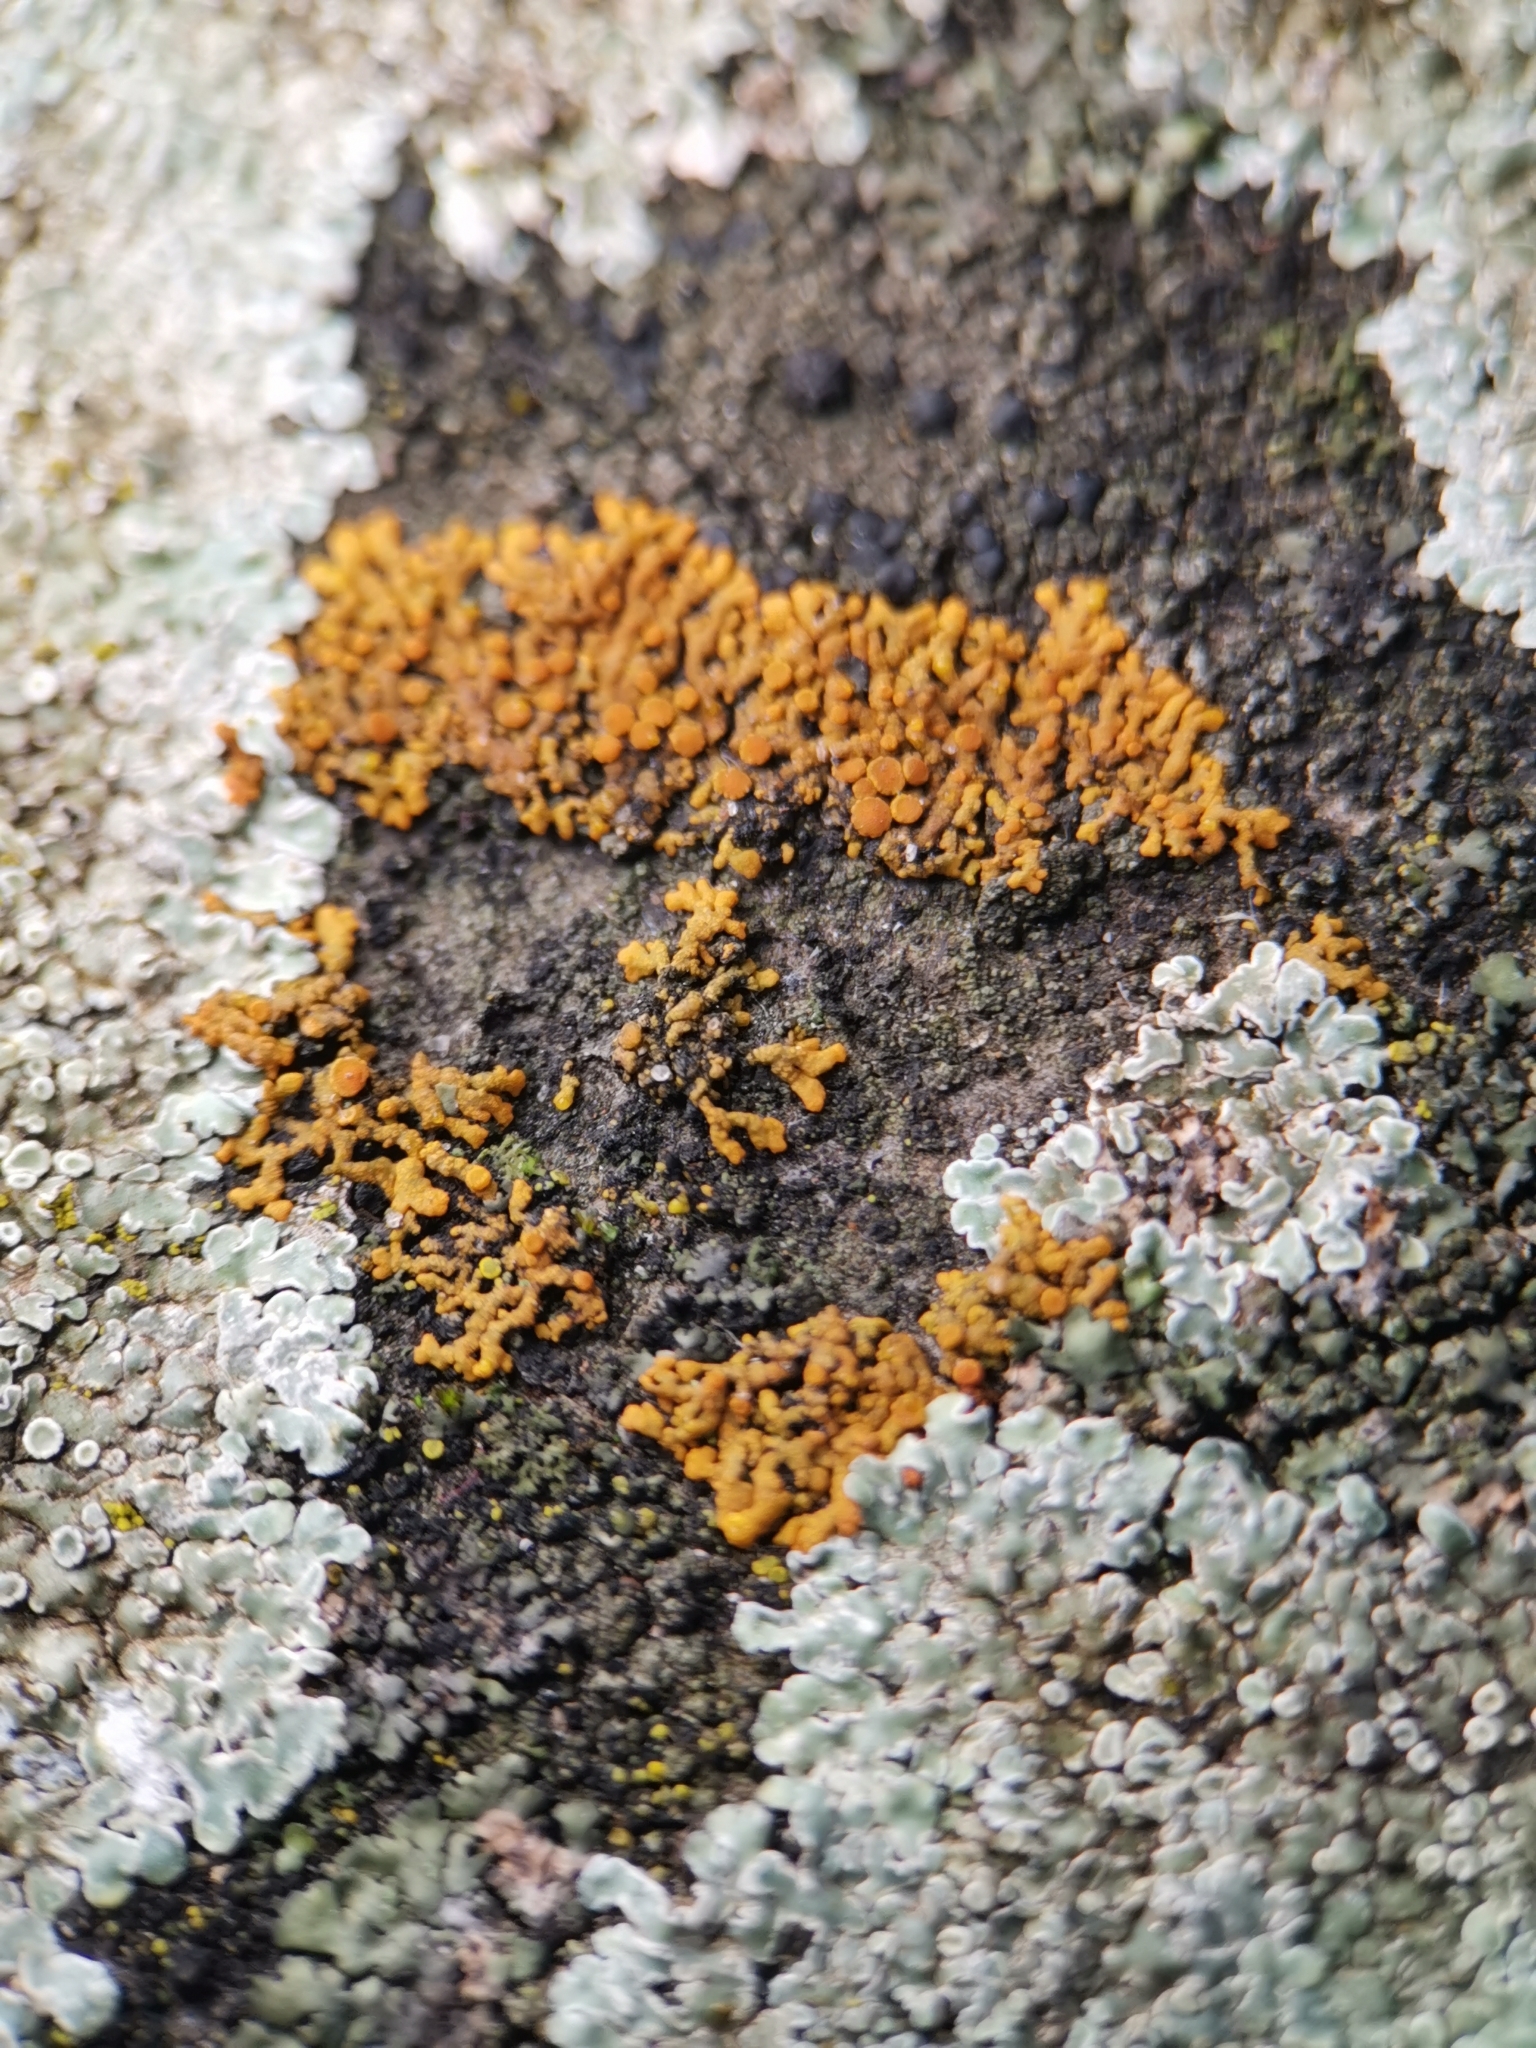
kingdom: Fungi
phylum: Ascomycota
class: Lecanoromycetes
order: Teloschistales
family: Teloschistaceae
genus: Xanthoria
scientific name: Xanthoria elegans
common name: Elegant sunburst lichen
